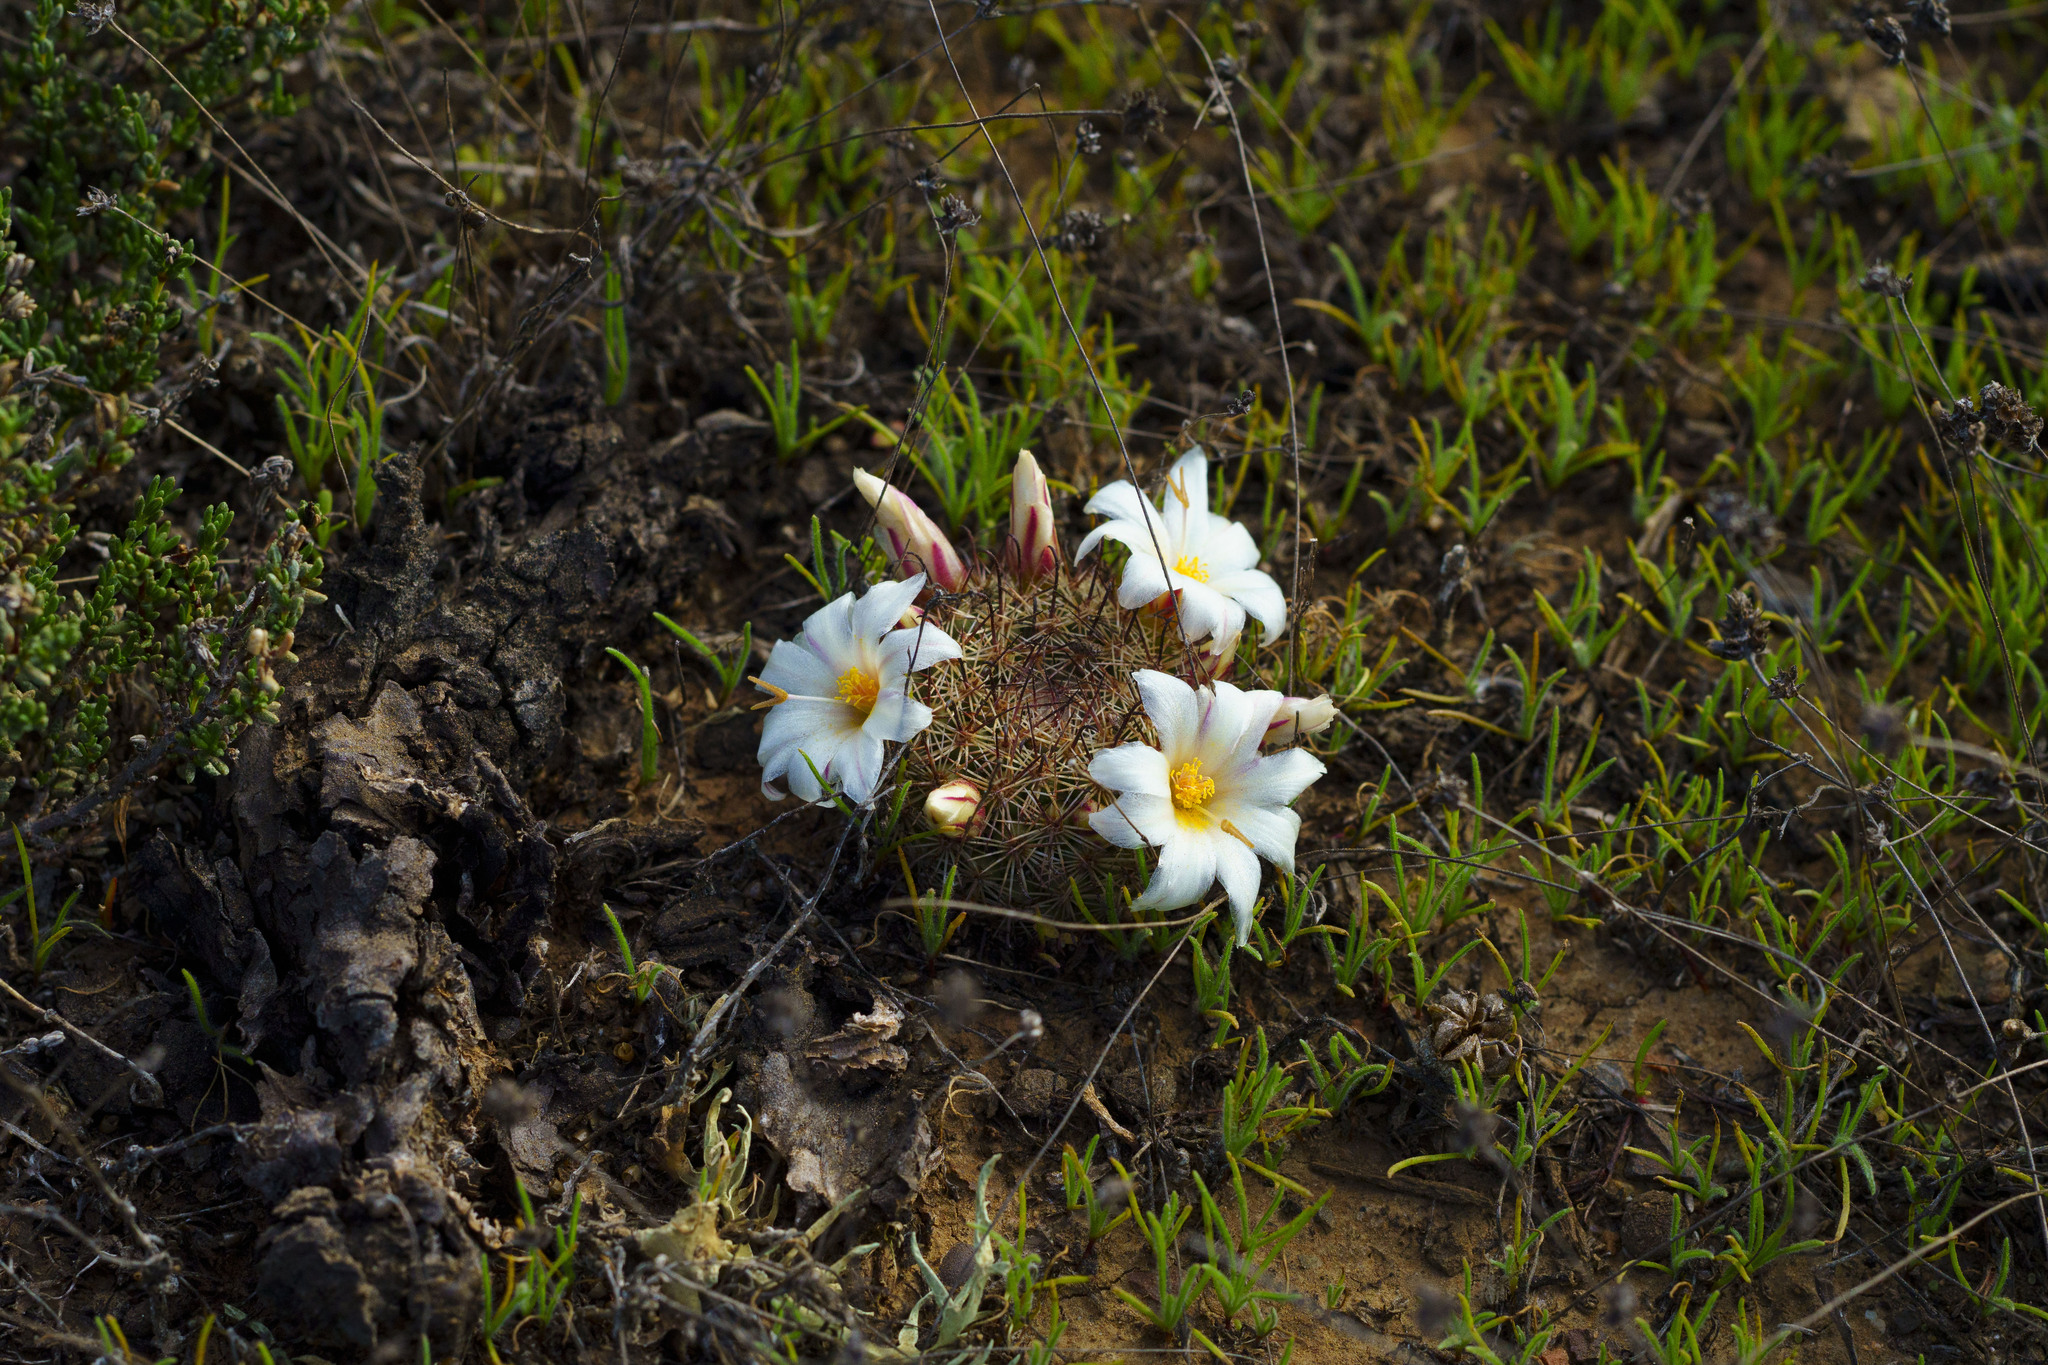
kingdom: Plantae
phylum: Tracheophyta
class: Magnoliopsida
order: Caryophyllales
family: Cactaceae
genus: Cochemiea
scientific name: Cochemiea dioica
